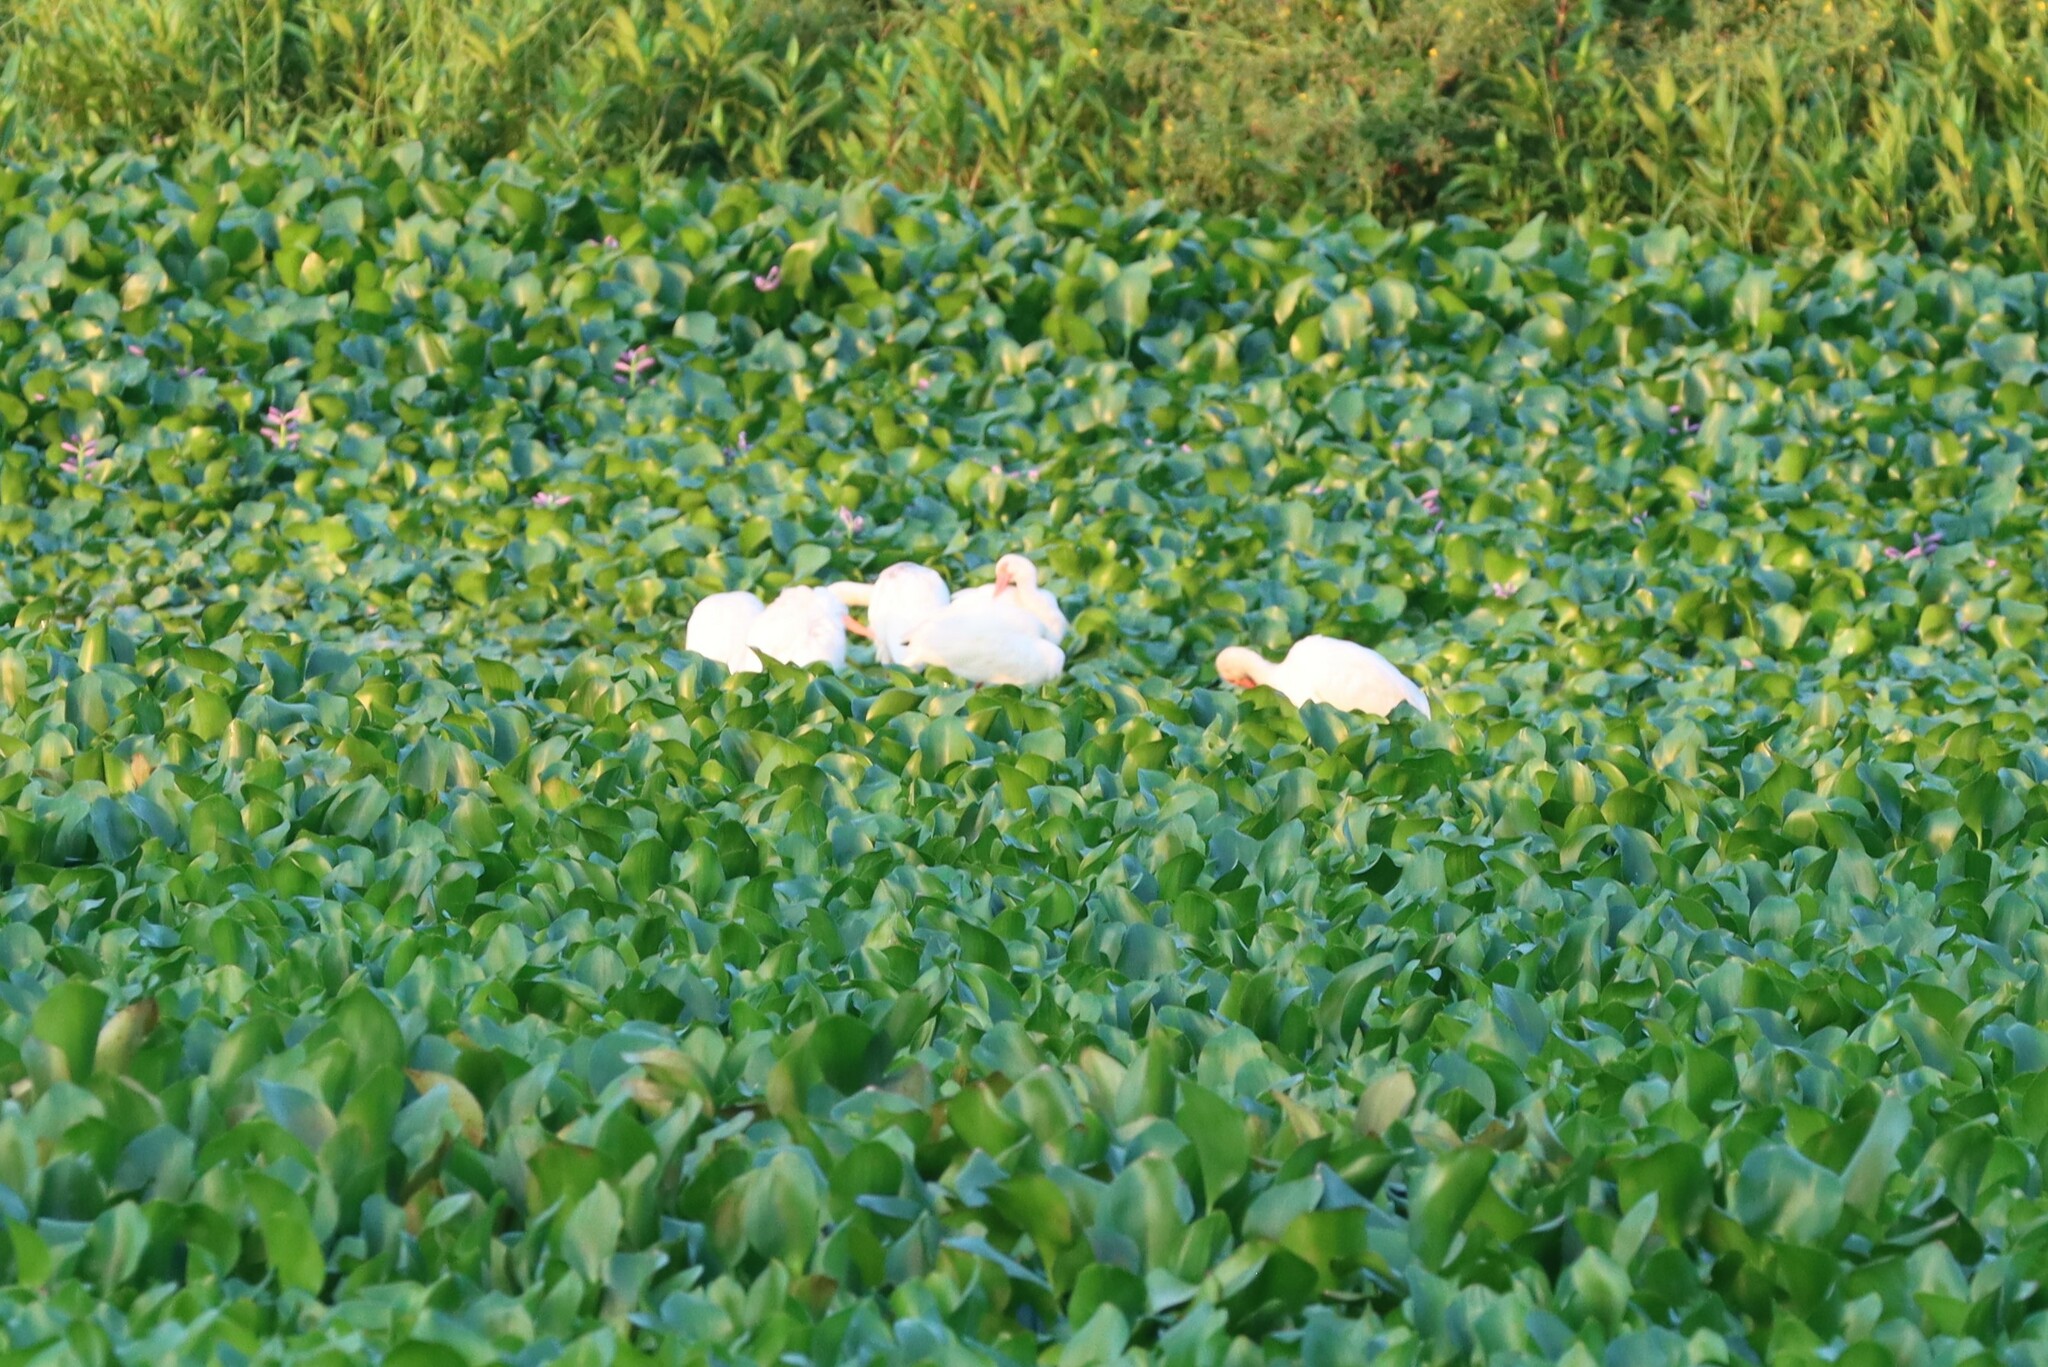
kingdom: Animalia
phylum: Chordata
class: Aves
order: Pelecaniformes
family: Threskiornithidae
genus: Eudocimus
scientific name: Eudocimus albus
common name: White ibis
